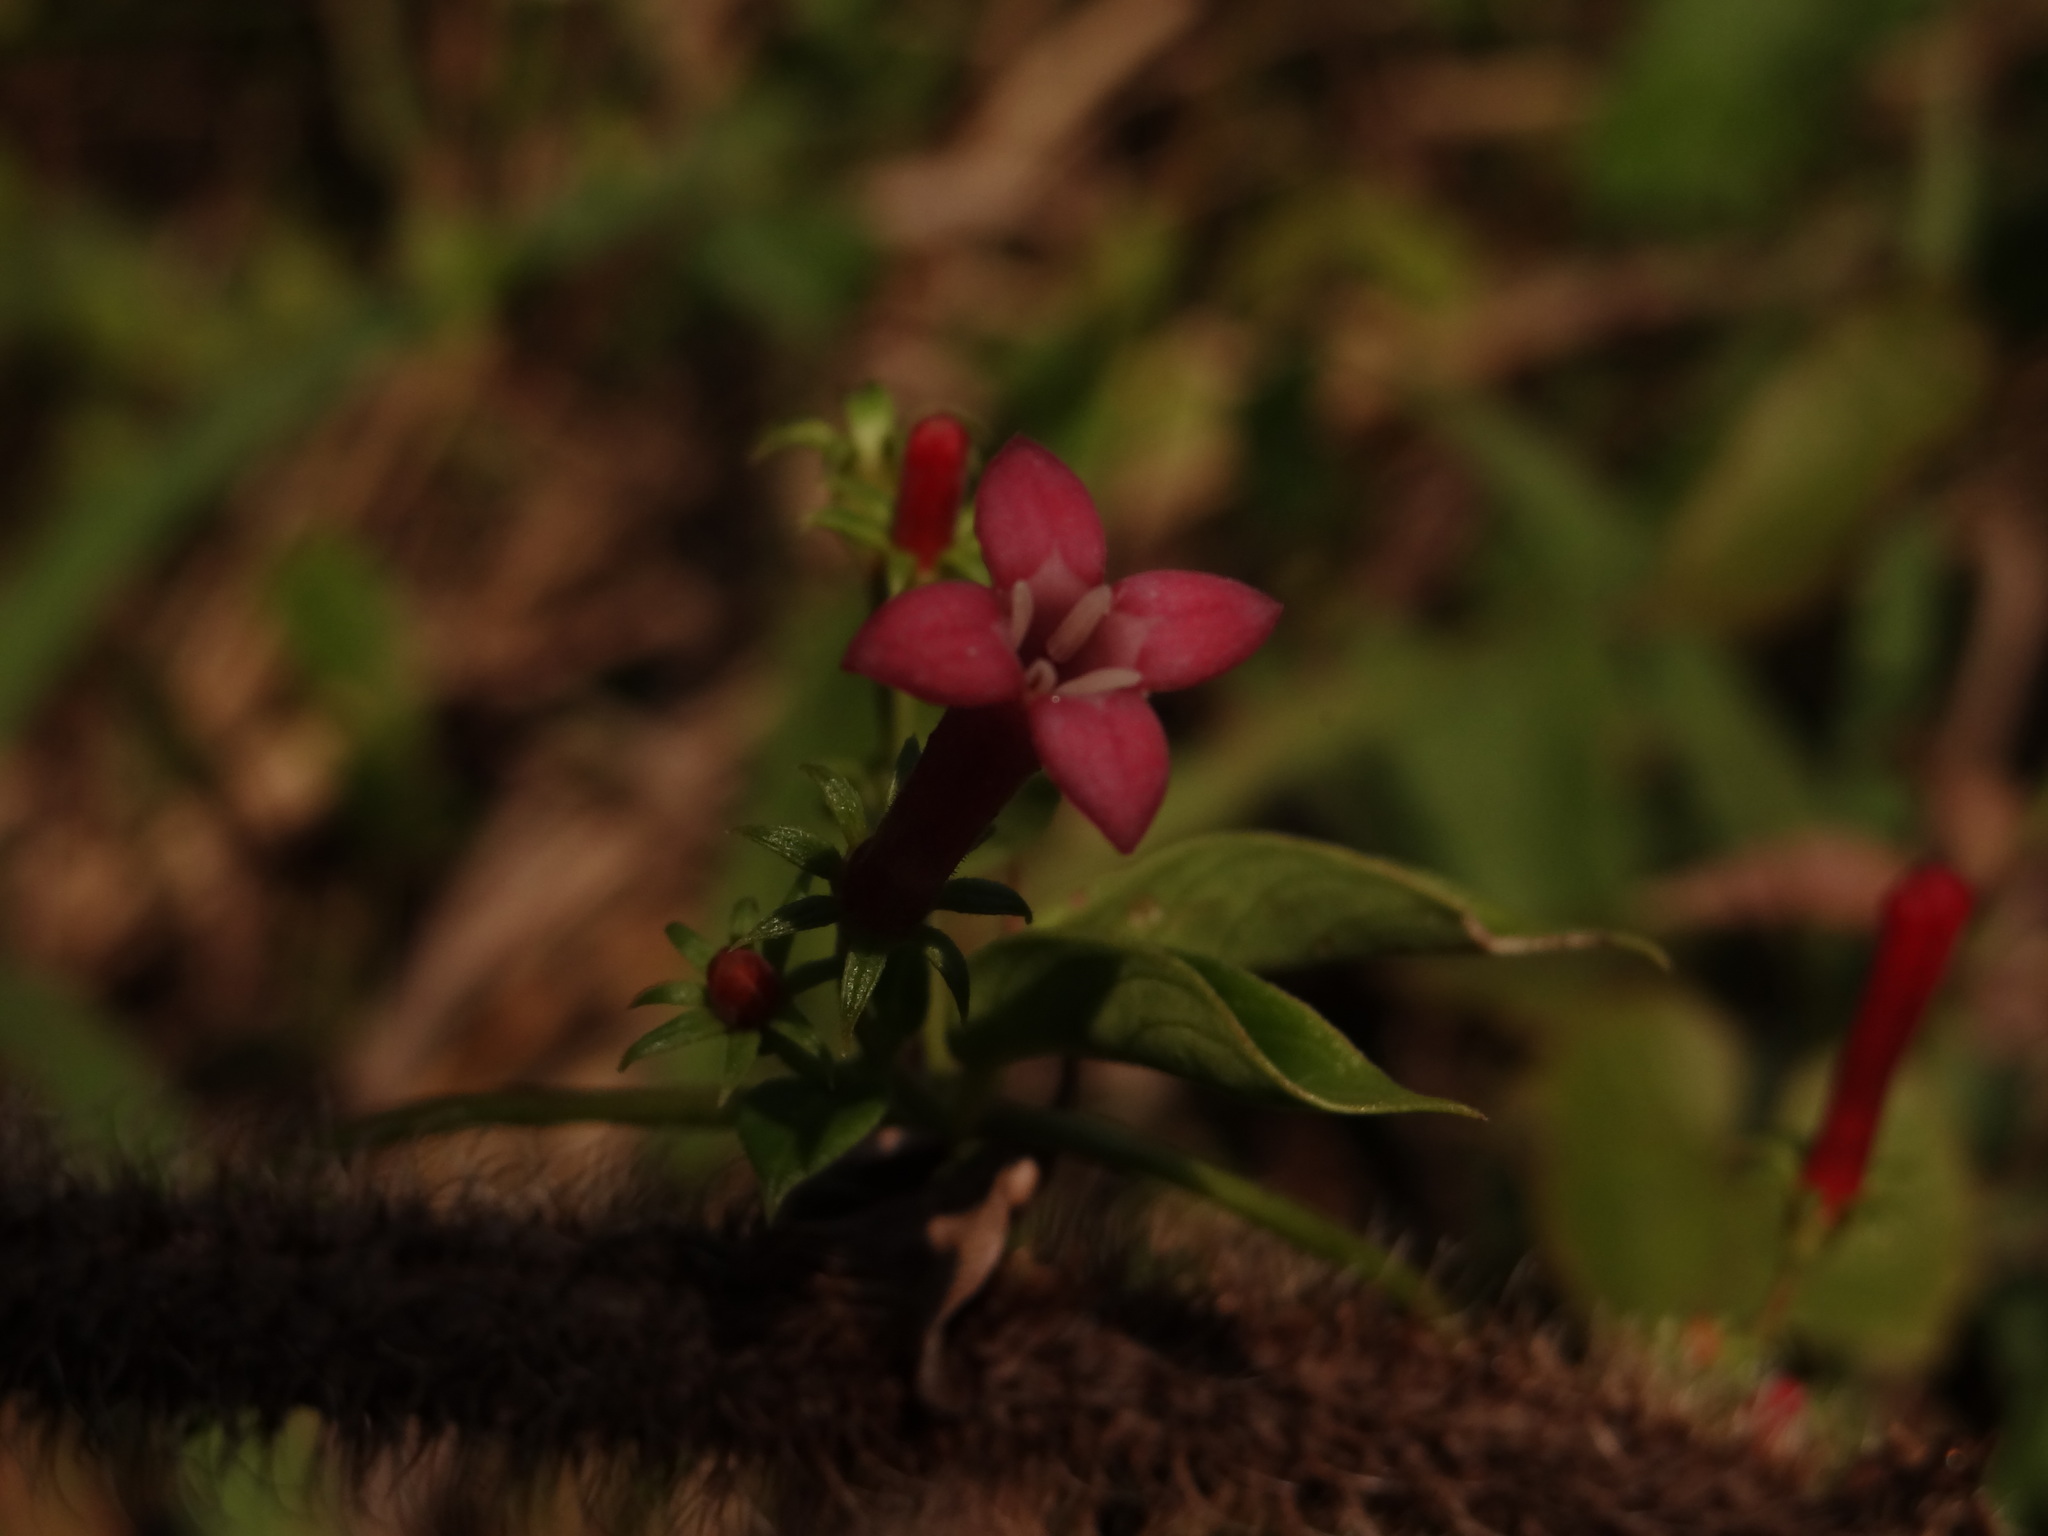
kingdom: Plantae
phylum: Tracheophyta
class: Magnoliopsida
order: Gentianales
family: Rubiaceae
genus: Manettia
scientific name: Manettia reclinata
